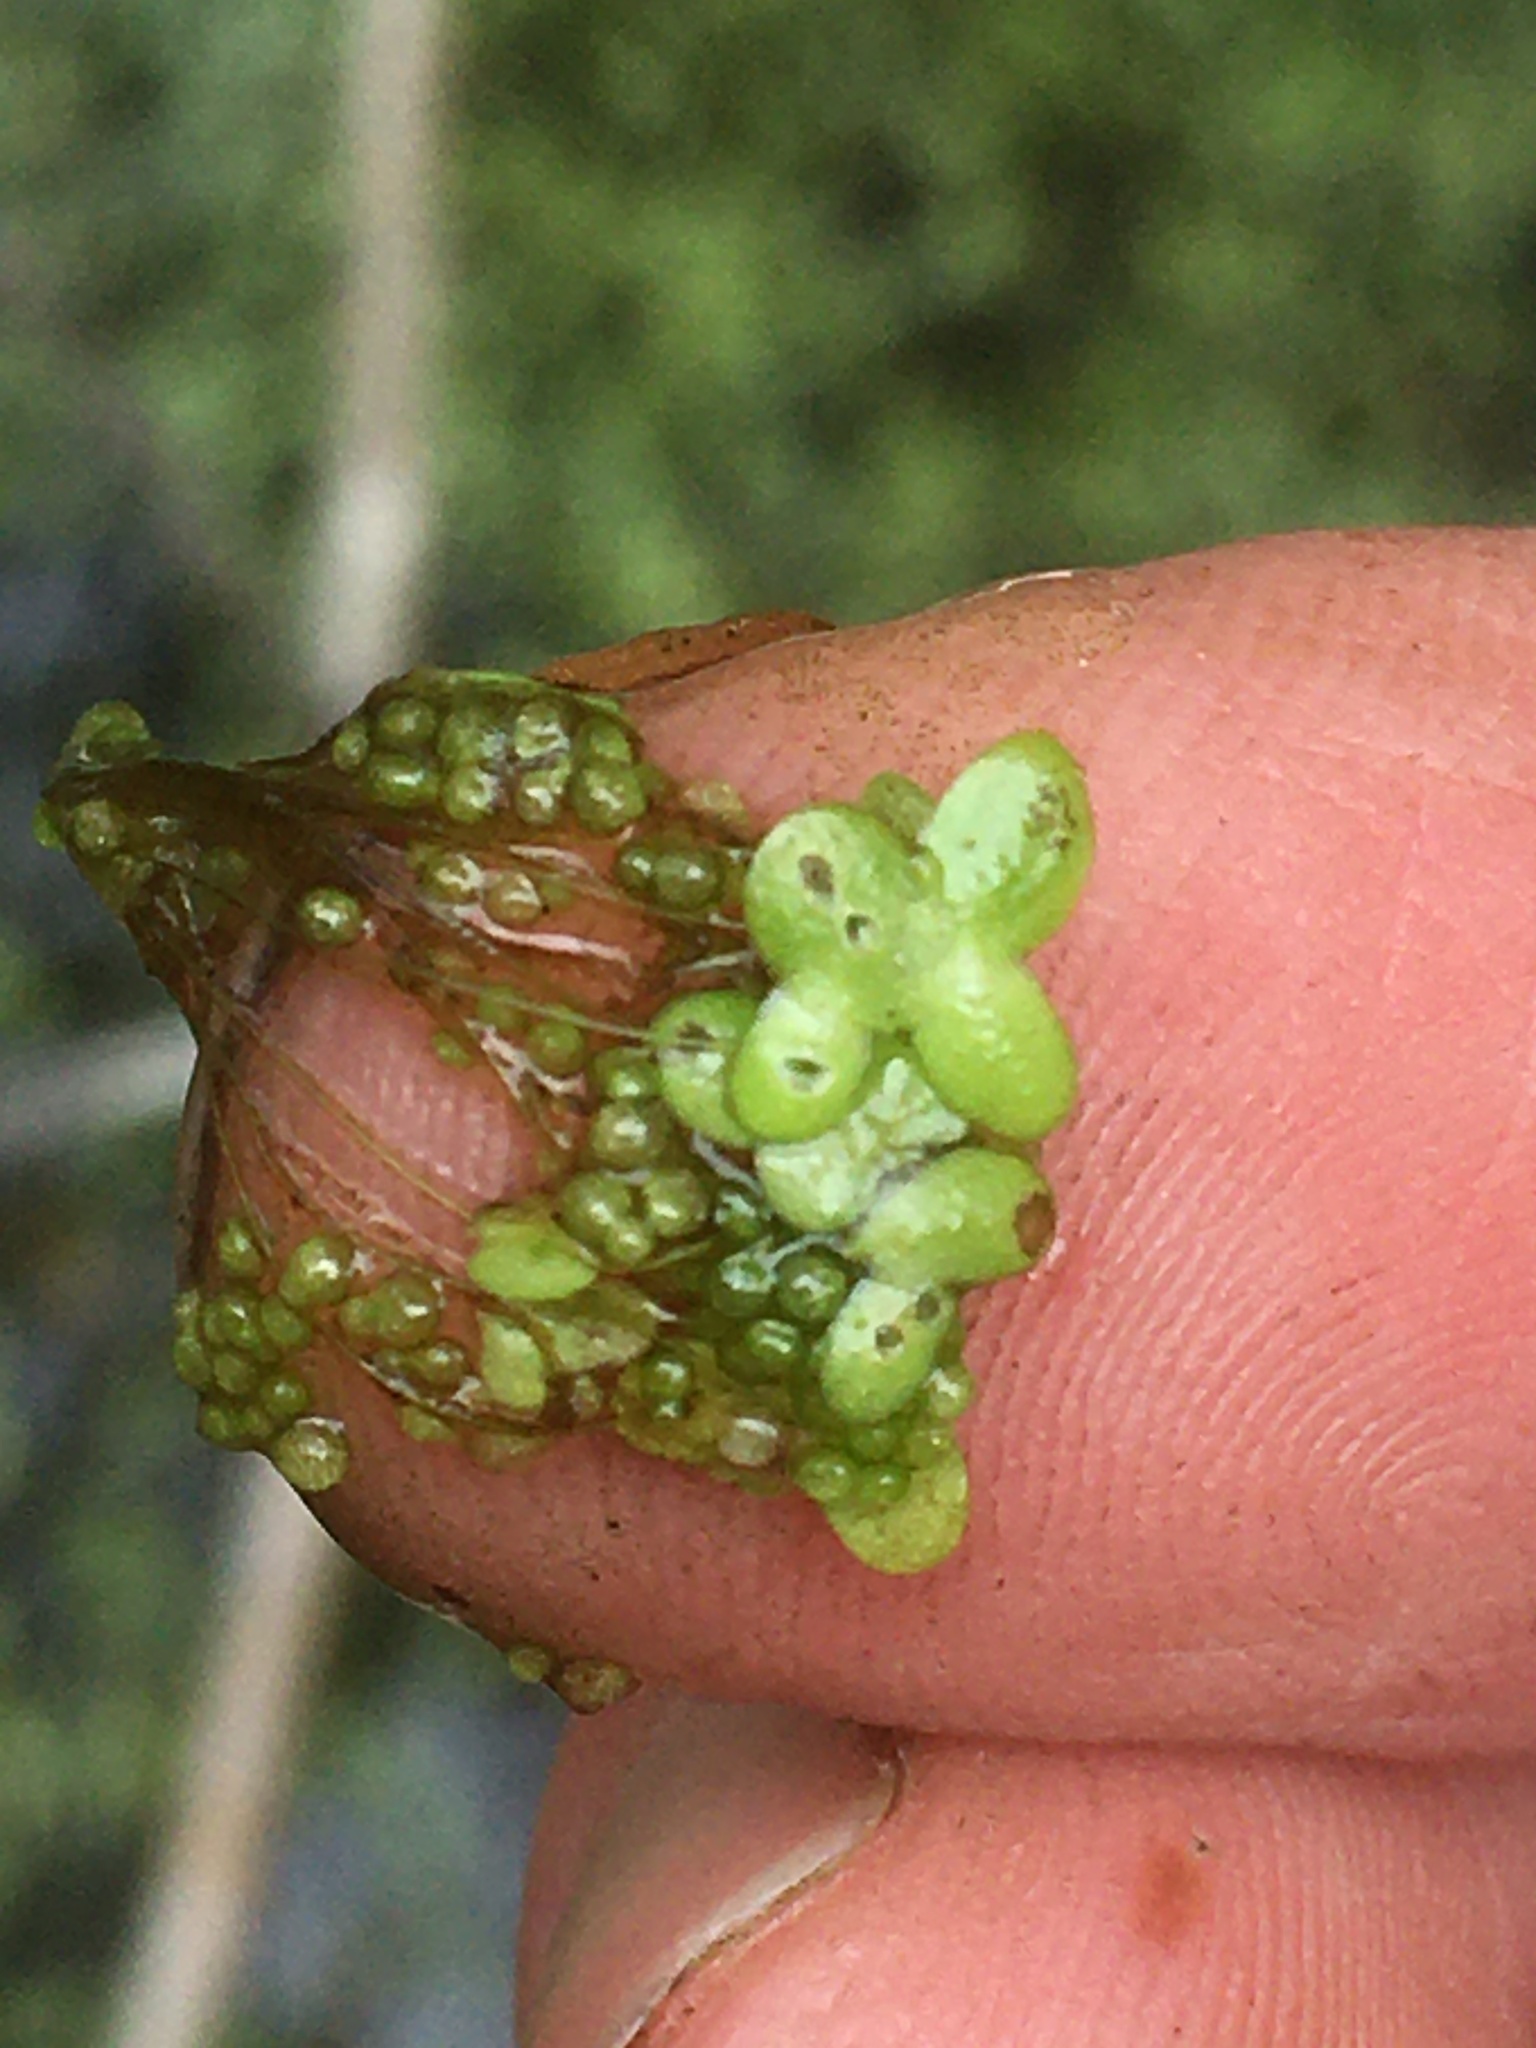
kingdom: Plantae
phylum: Tracheophyta
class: Liliopsida
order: Alismatales
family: Araceae
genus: Lemna
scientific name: Lemna minor
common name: Common duckweed
